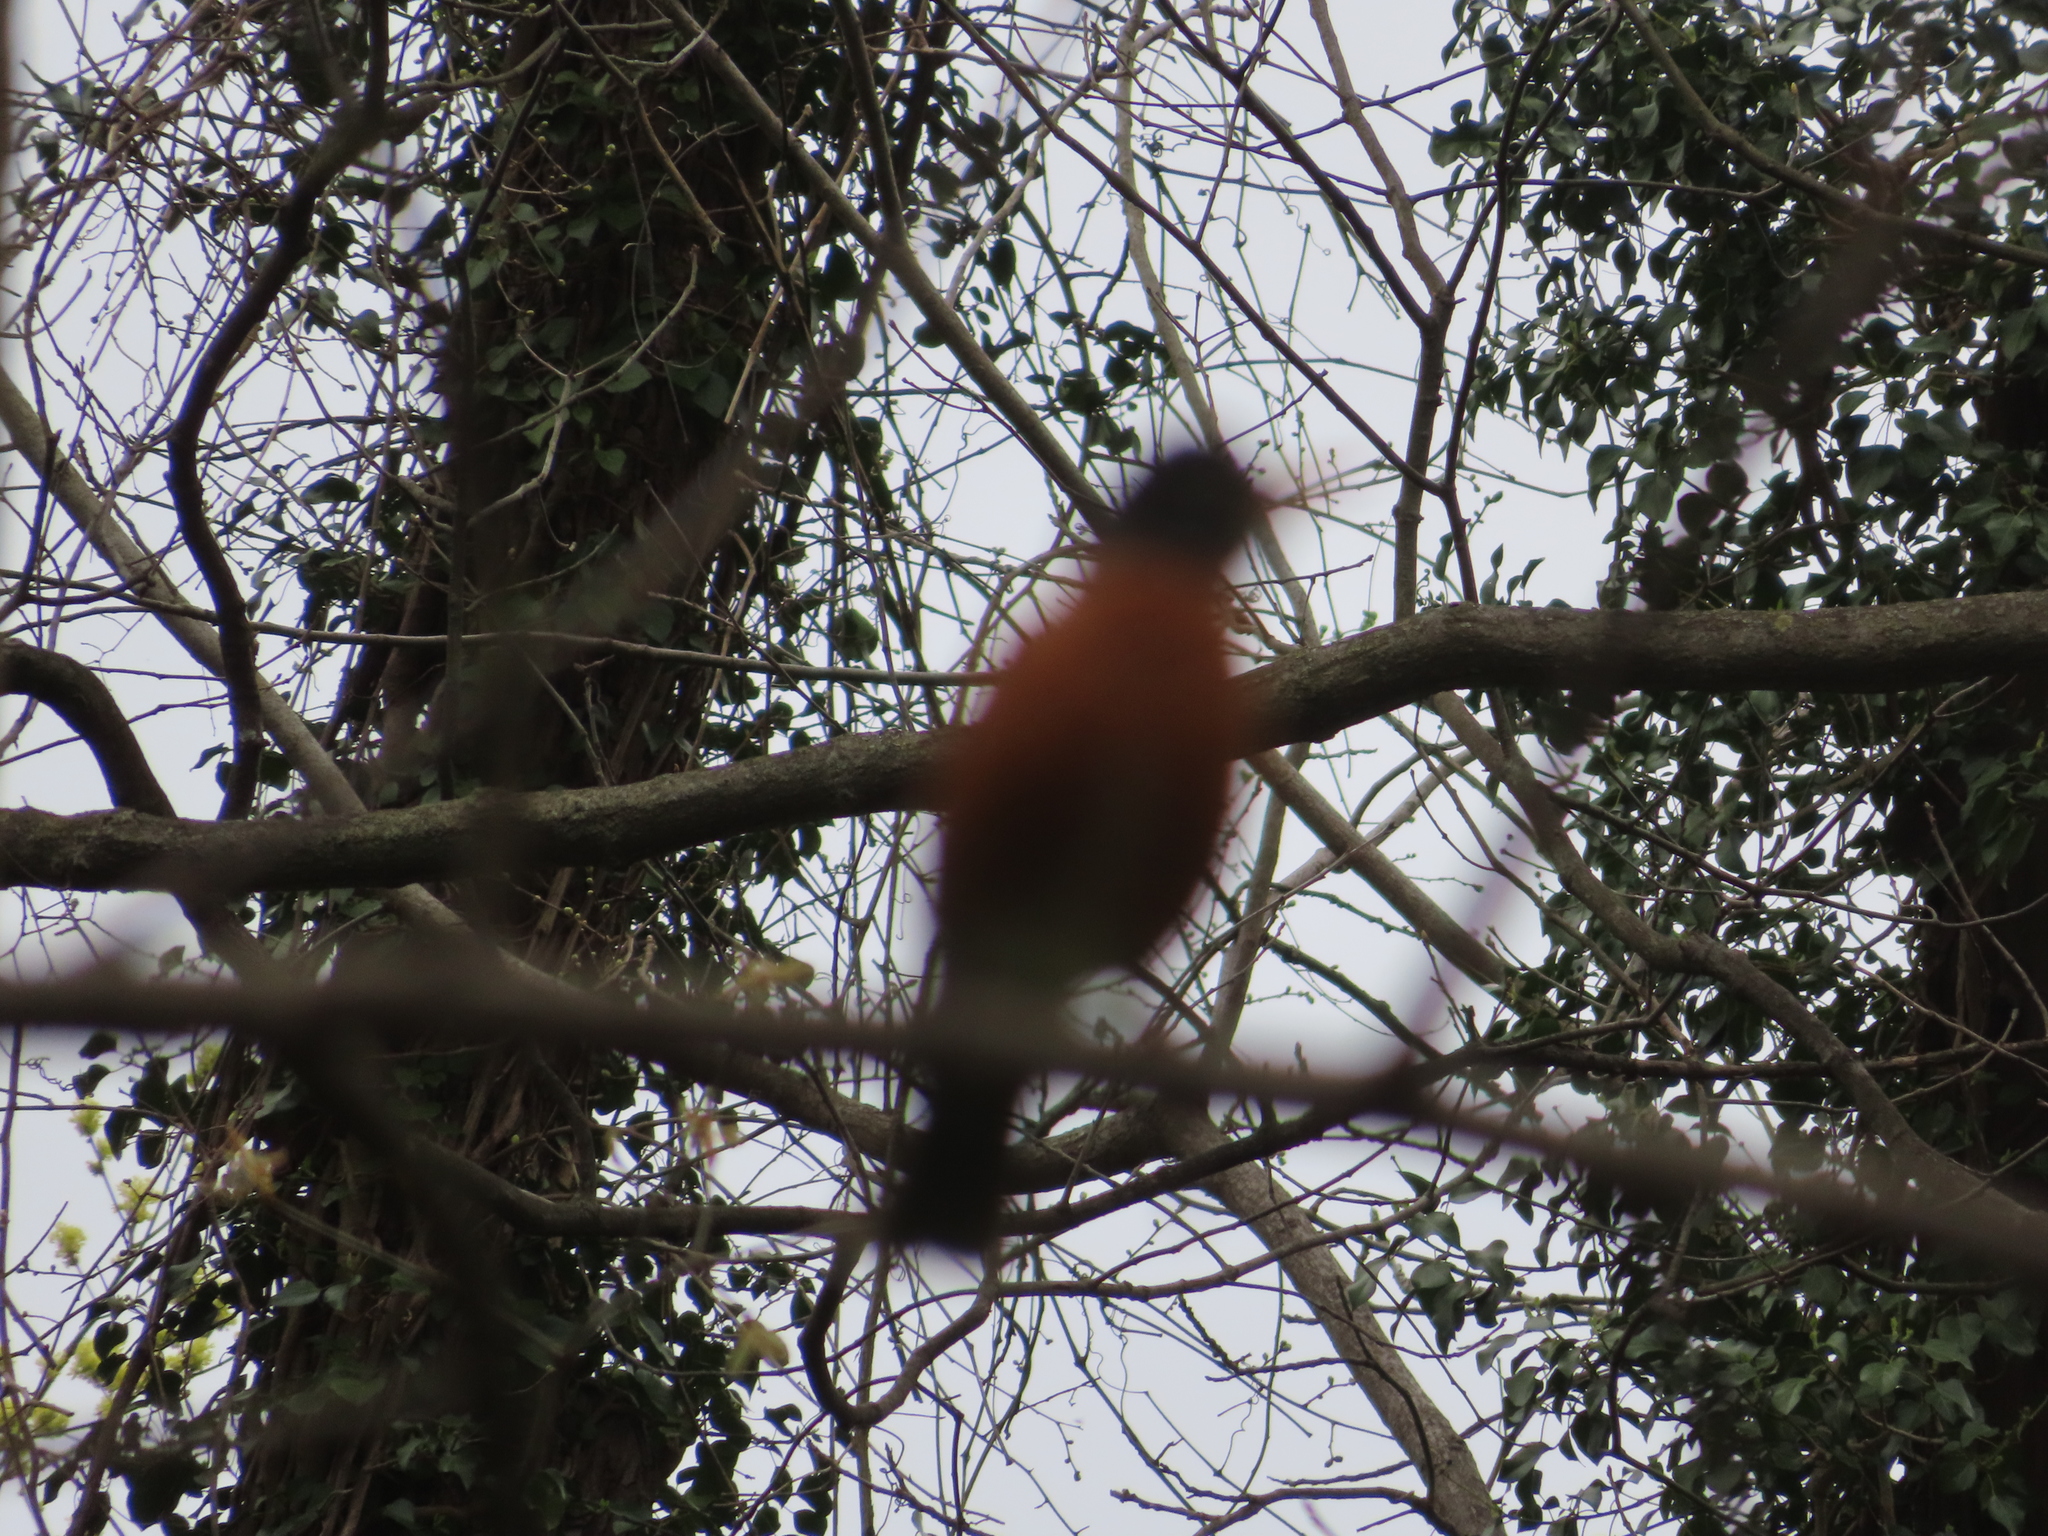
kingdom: Animalia
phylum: Chordata
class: Aves
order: Passeriformes
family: Turdidae
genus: Turdus
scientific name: Turdus migratorius
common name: American robin
